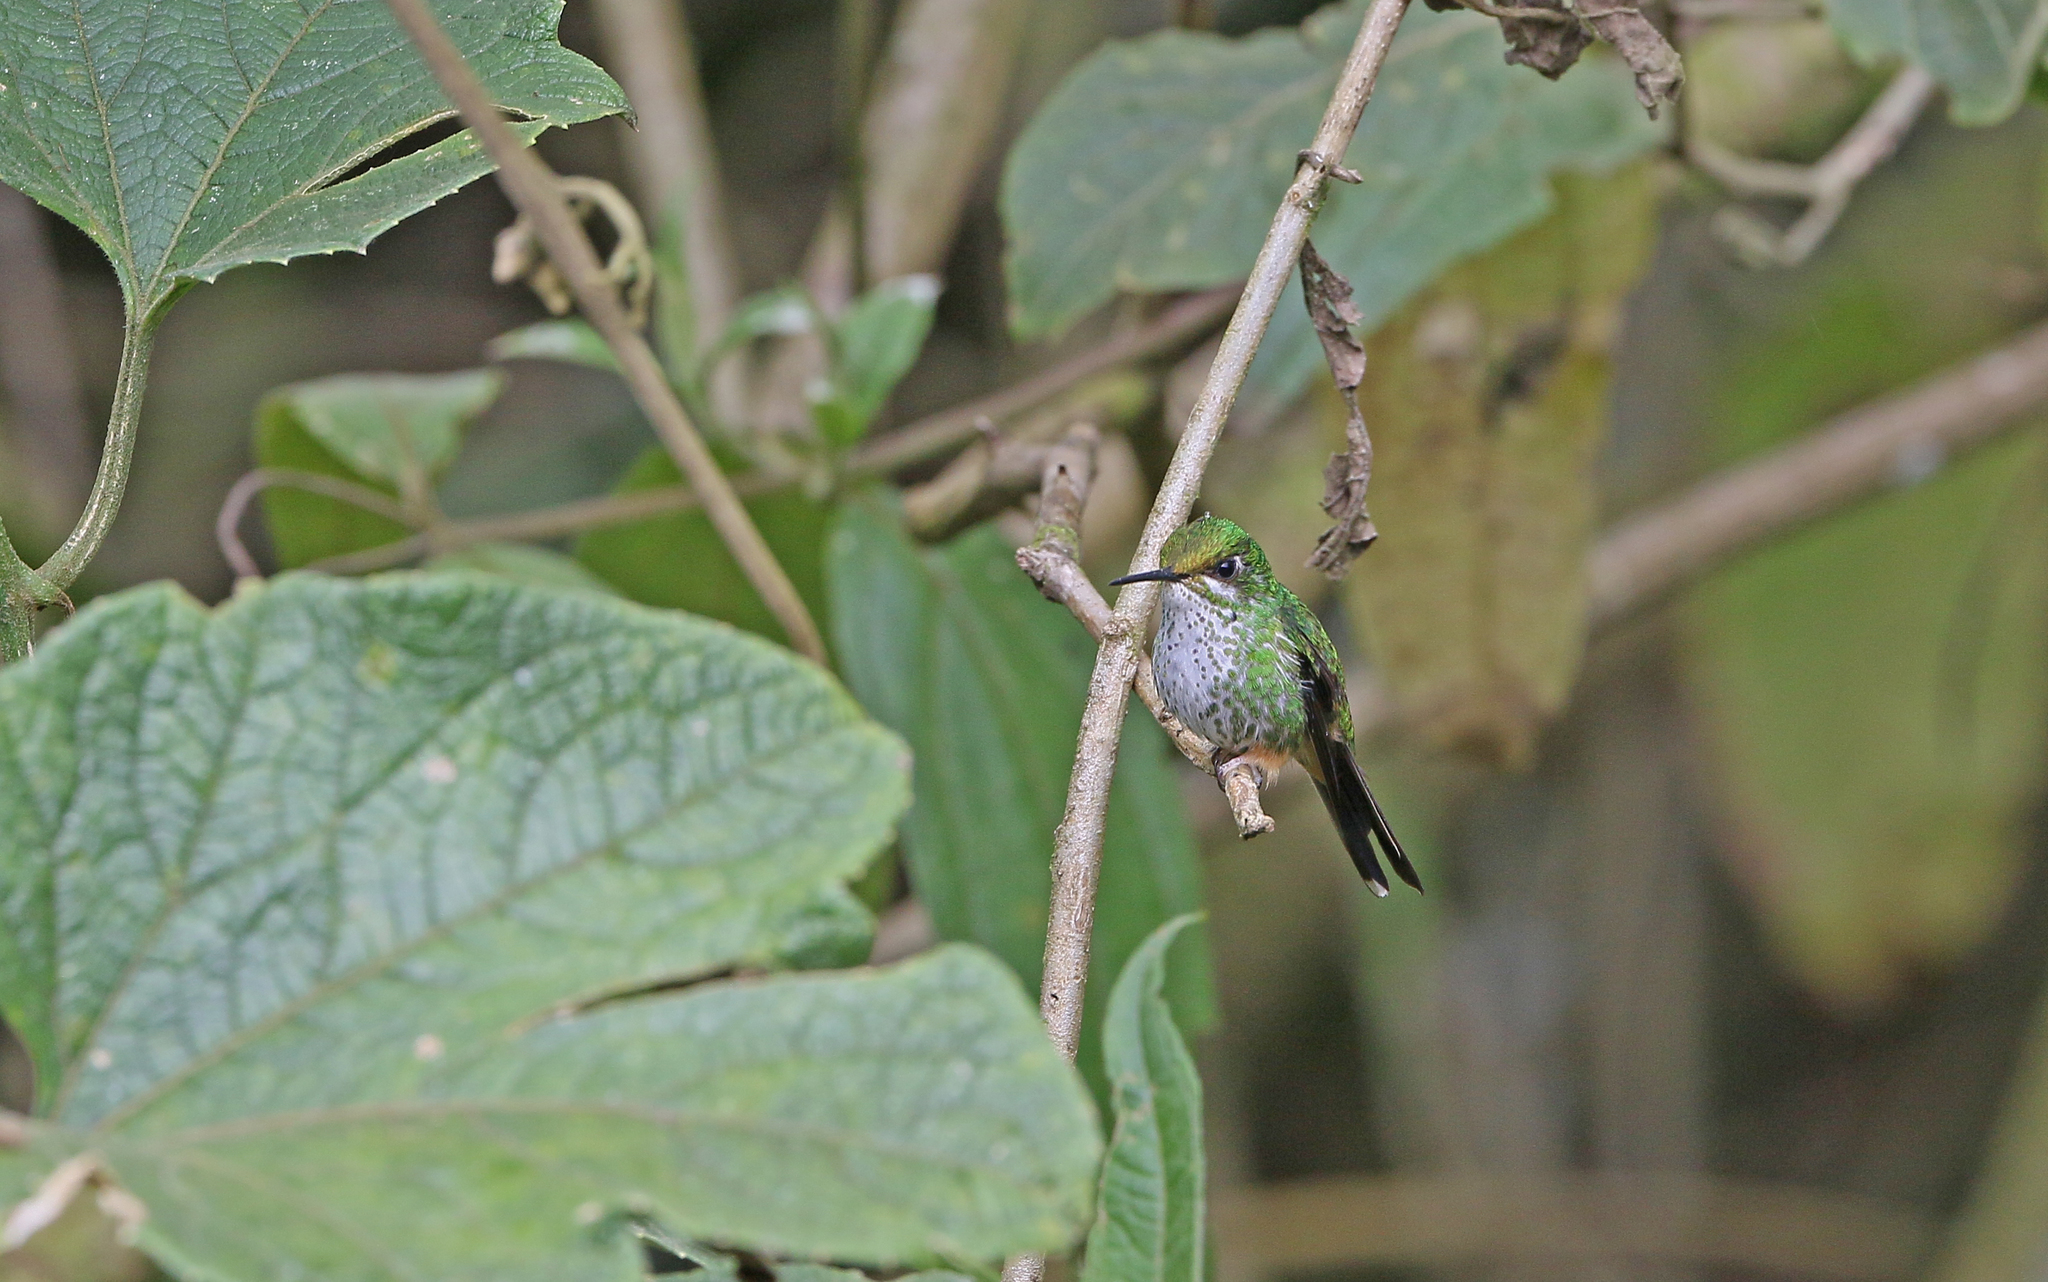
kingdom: Animalia
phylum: Chordata
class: Aves
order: Apodiformes
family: Trochilidae
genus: Ocreatus
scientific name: Ocreatus peruanus
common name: Peruvian racket-tail
